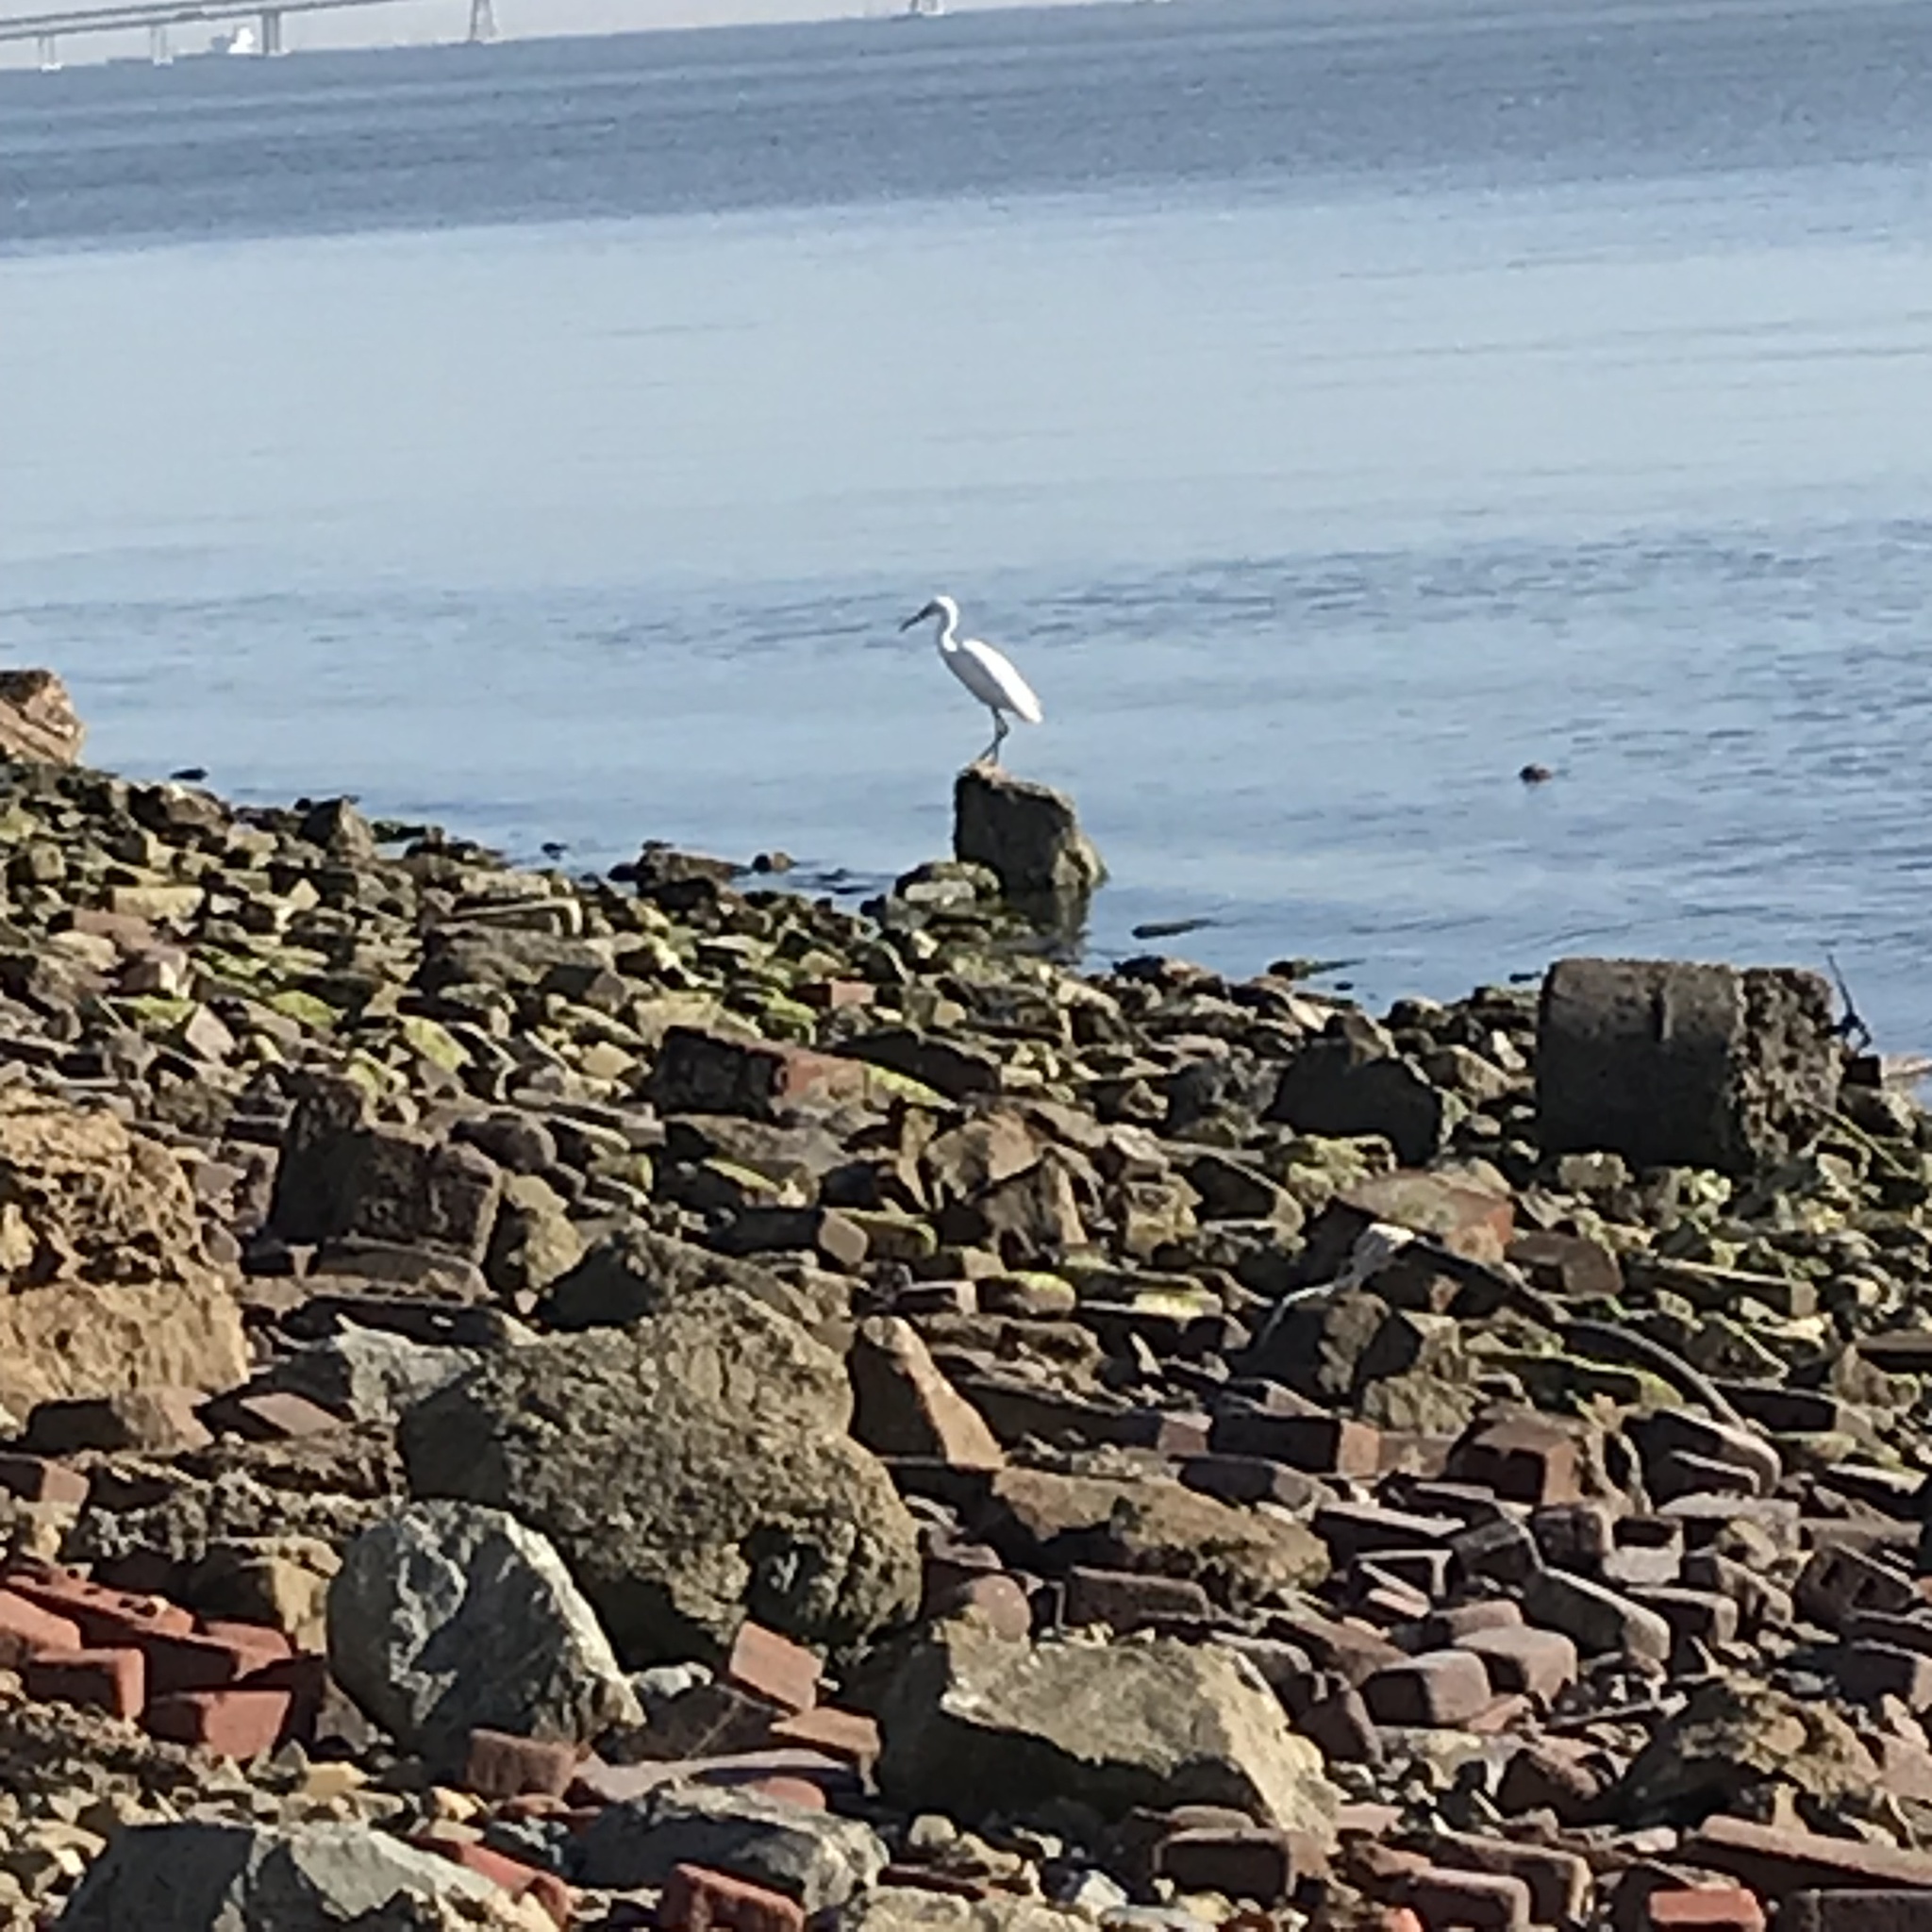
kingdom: Animalia
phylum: Chordata
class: Aves
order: Pelecaniformes
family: Ardeidae
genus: Egretta
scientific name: Egretta thula
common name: Snowy egret
